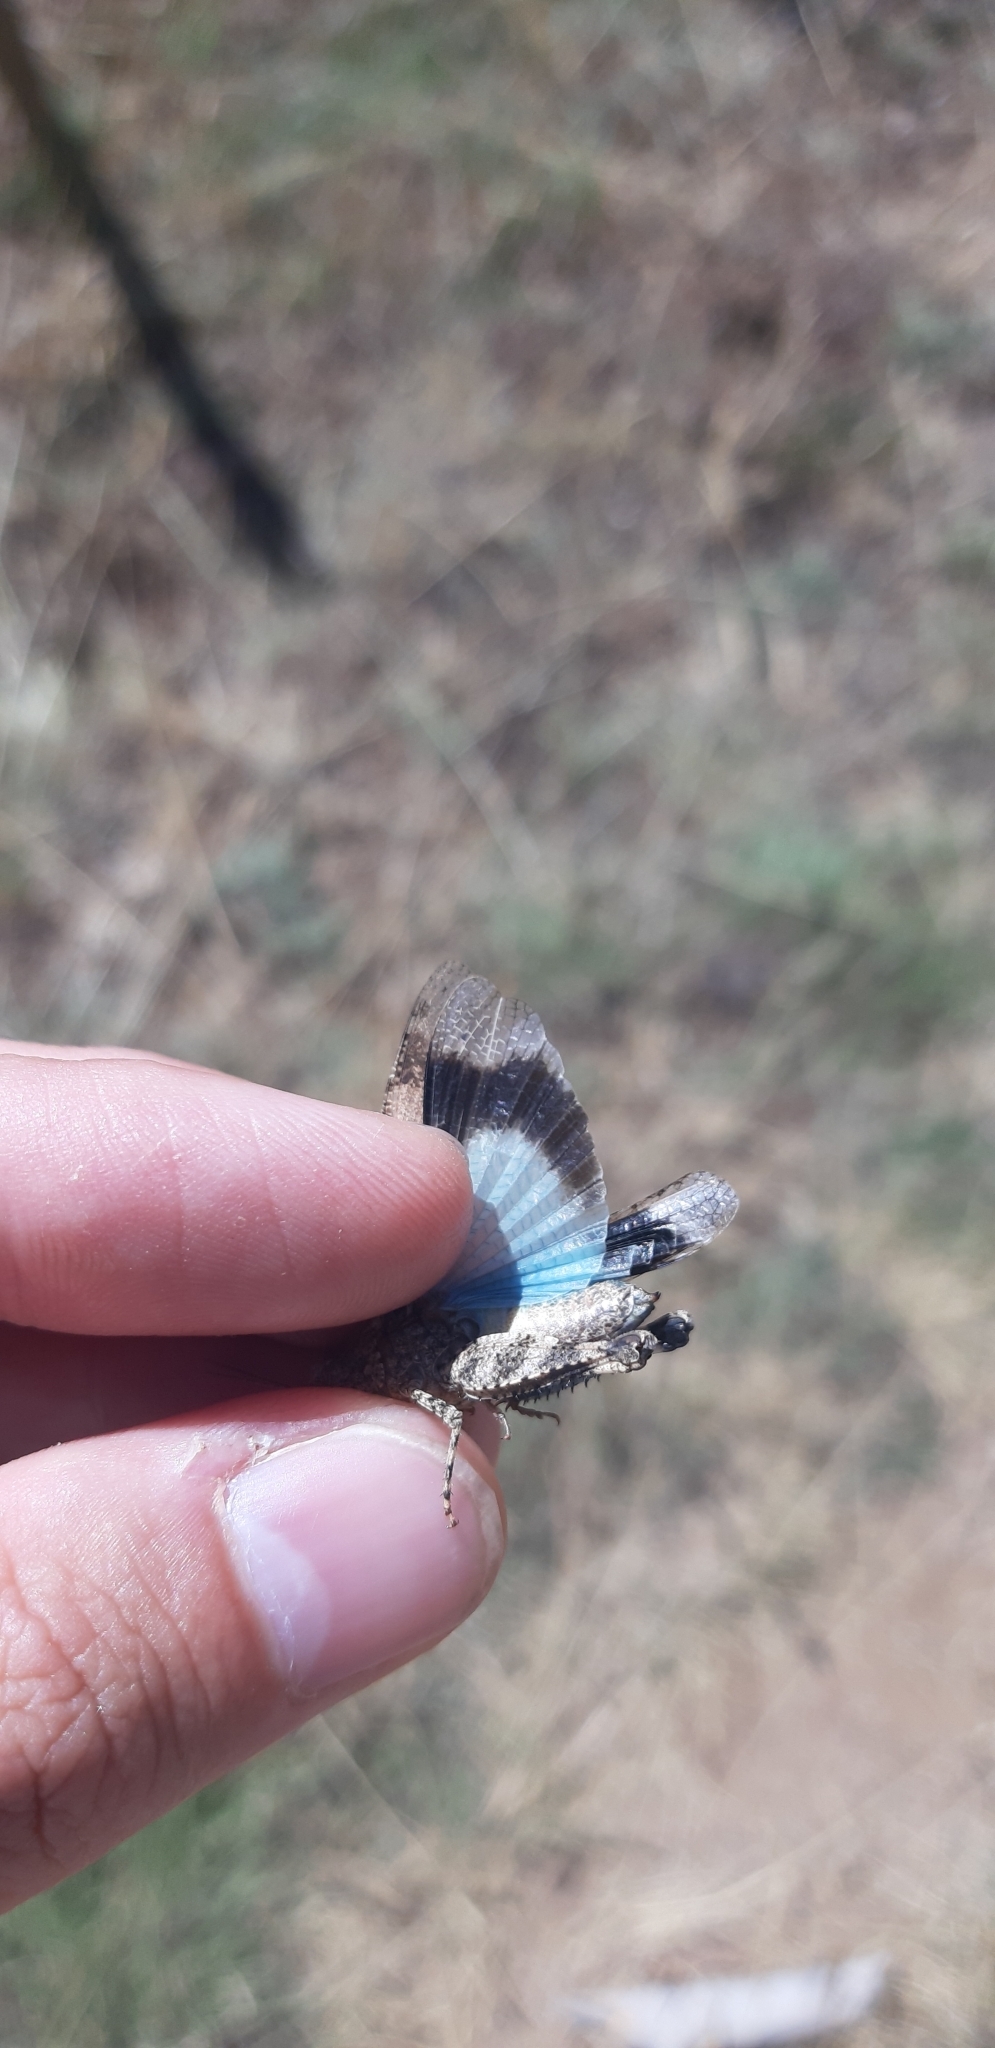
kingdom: Animalia
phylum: Arthropoda
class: Insecta
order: Orthoptera
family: Acrididae
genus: Oedipoda
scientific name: Oedipoda caerulescens
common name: Blue-winged grasshopper
